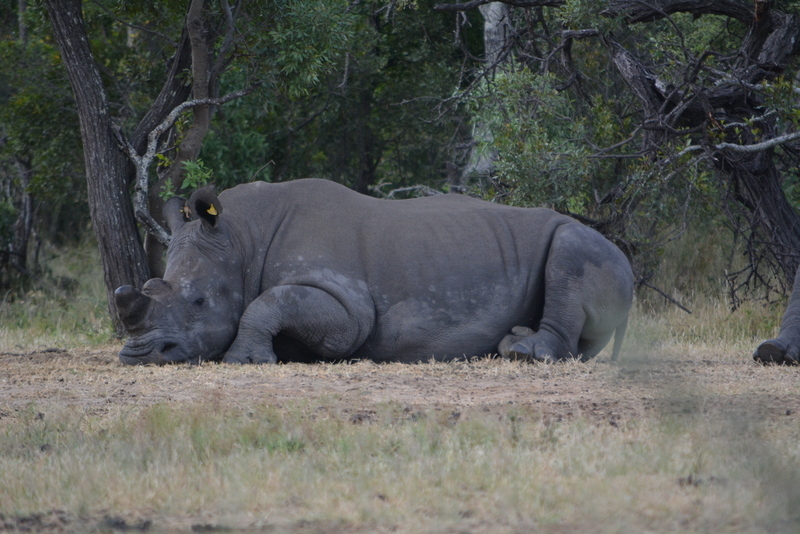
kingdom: Animalia
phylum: Chordata
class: Mammalia
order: Perissodactyla
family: Rhinocerotidae
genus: Ceratotherium
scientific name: Ceratotherium simum
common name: White rhinoceros
